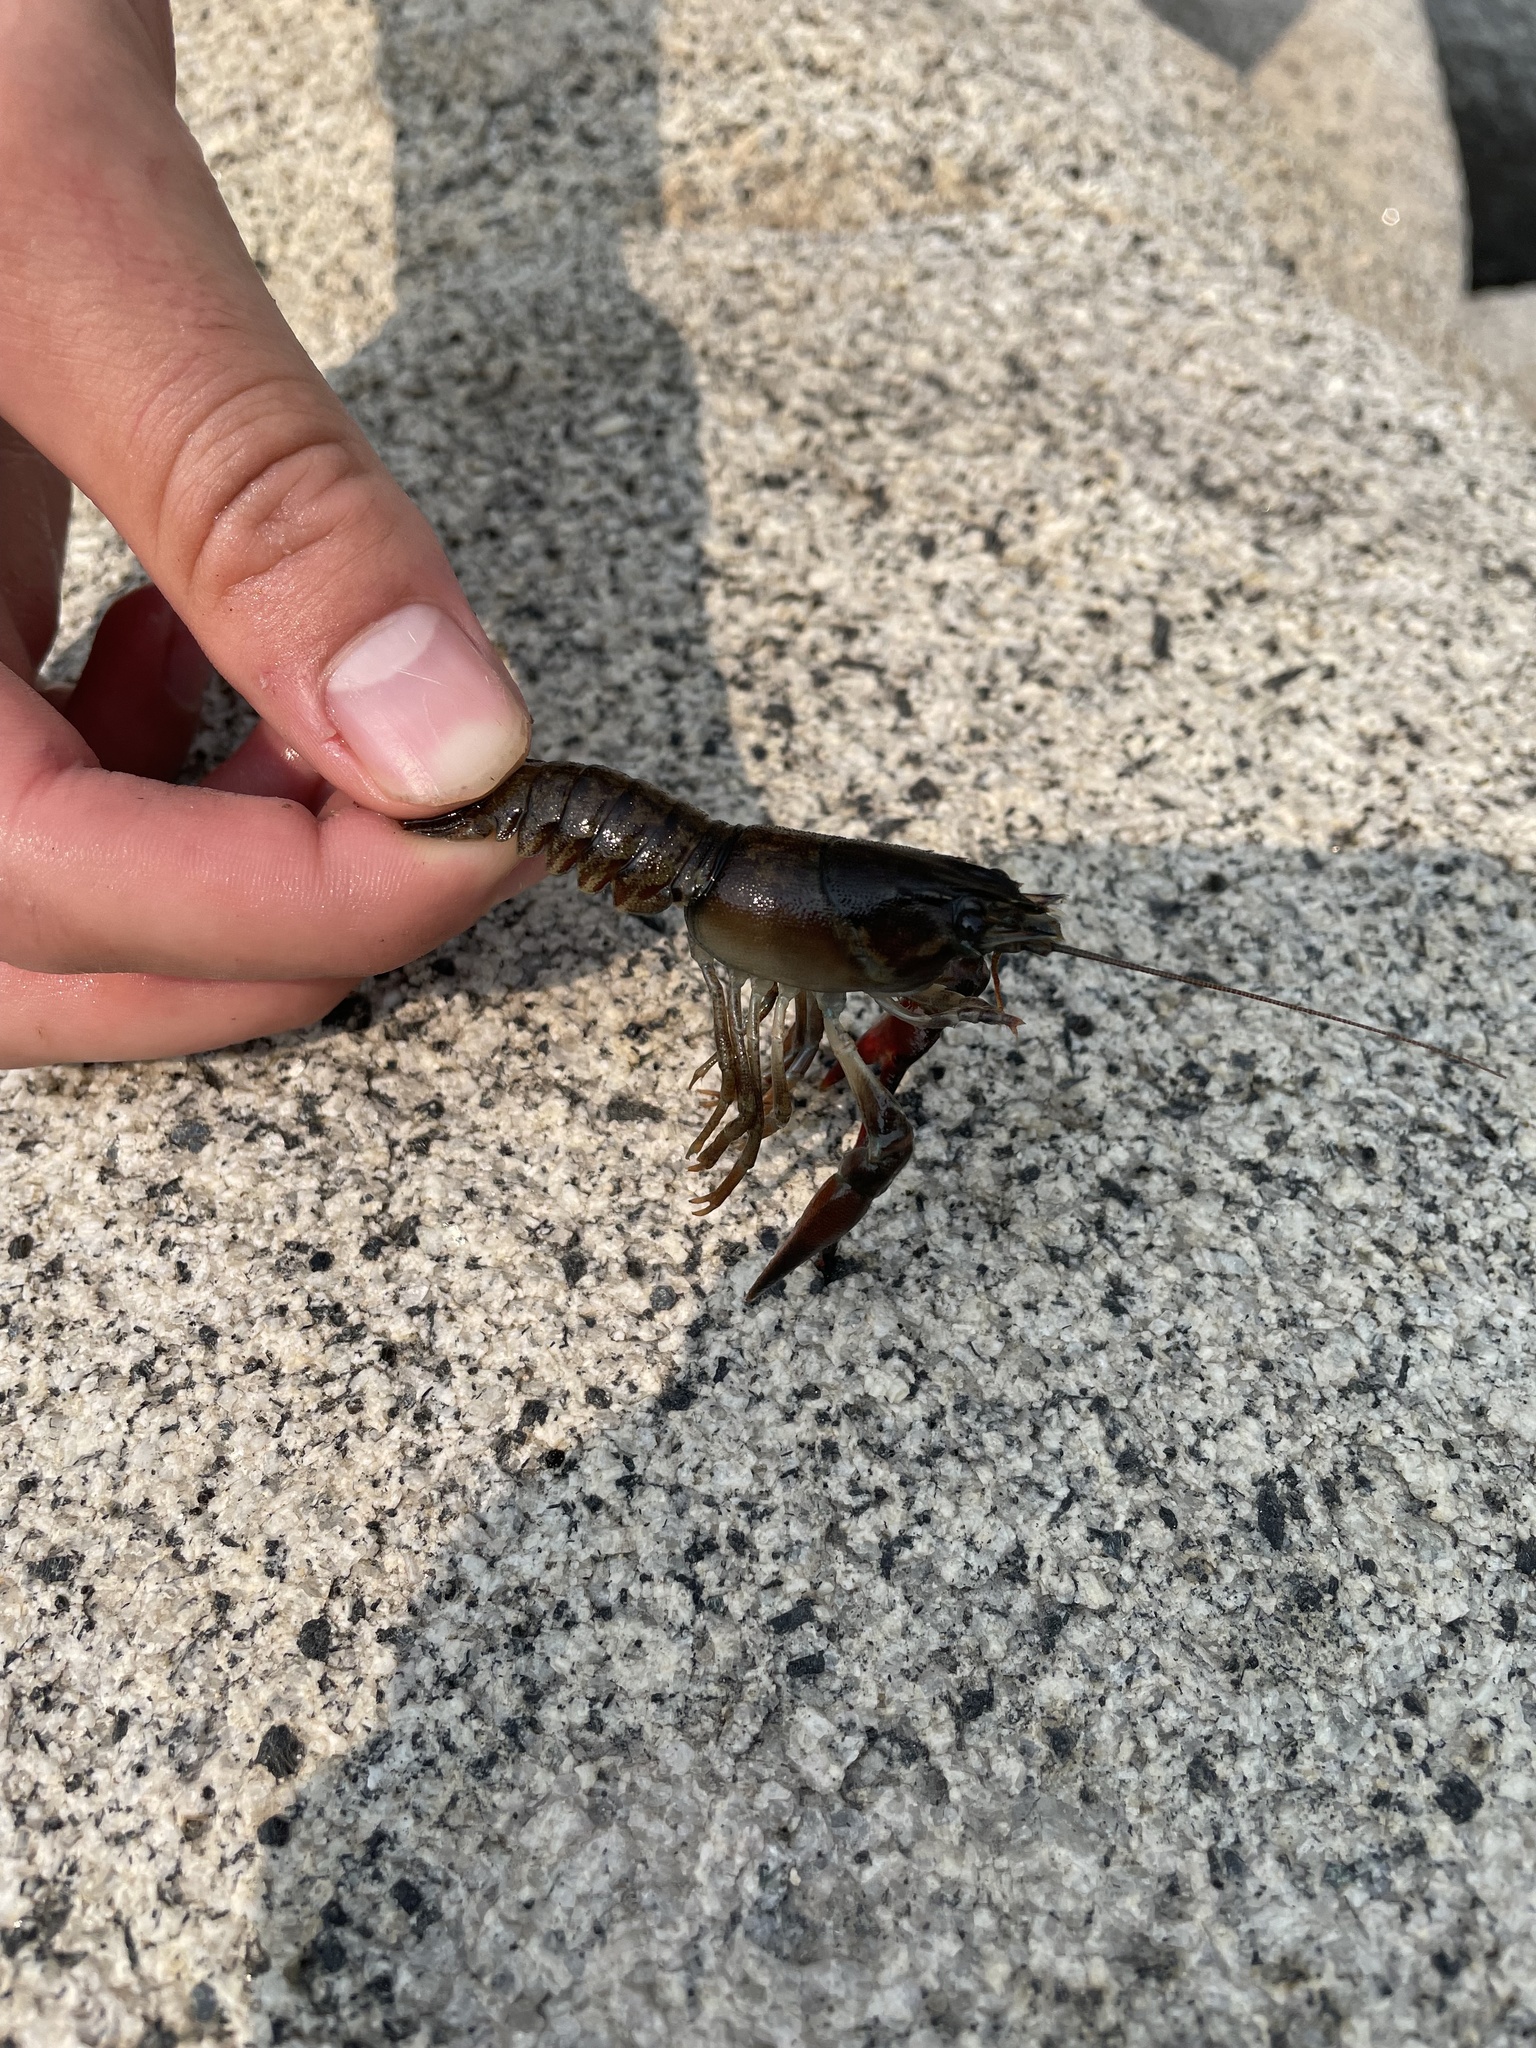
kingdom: Animalia
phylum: Arthropoda
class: Malacostraca
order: Decapoda
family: Astacidae
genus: Pacifastacus
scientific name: Pacifastacus leniusculus
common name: Signal crayfish
